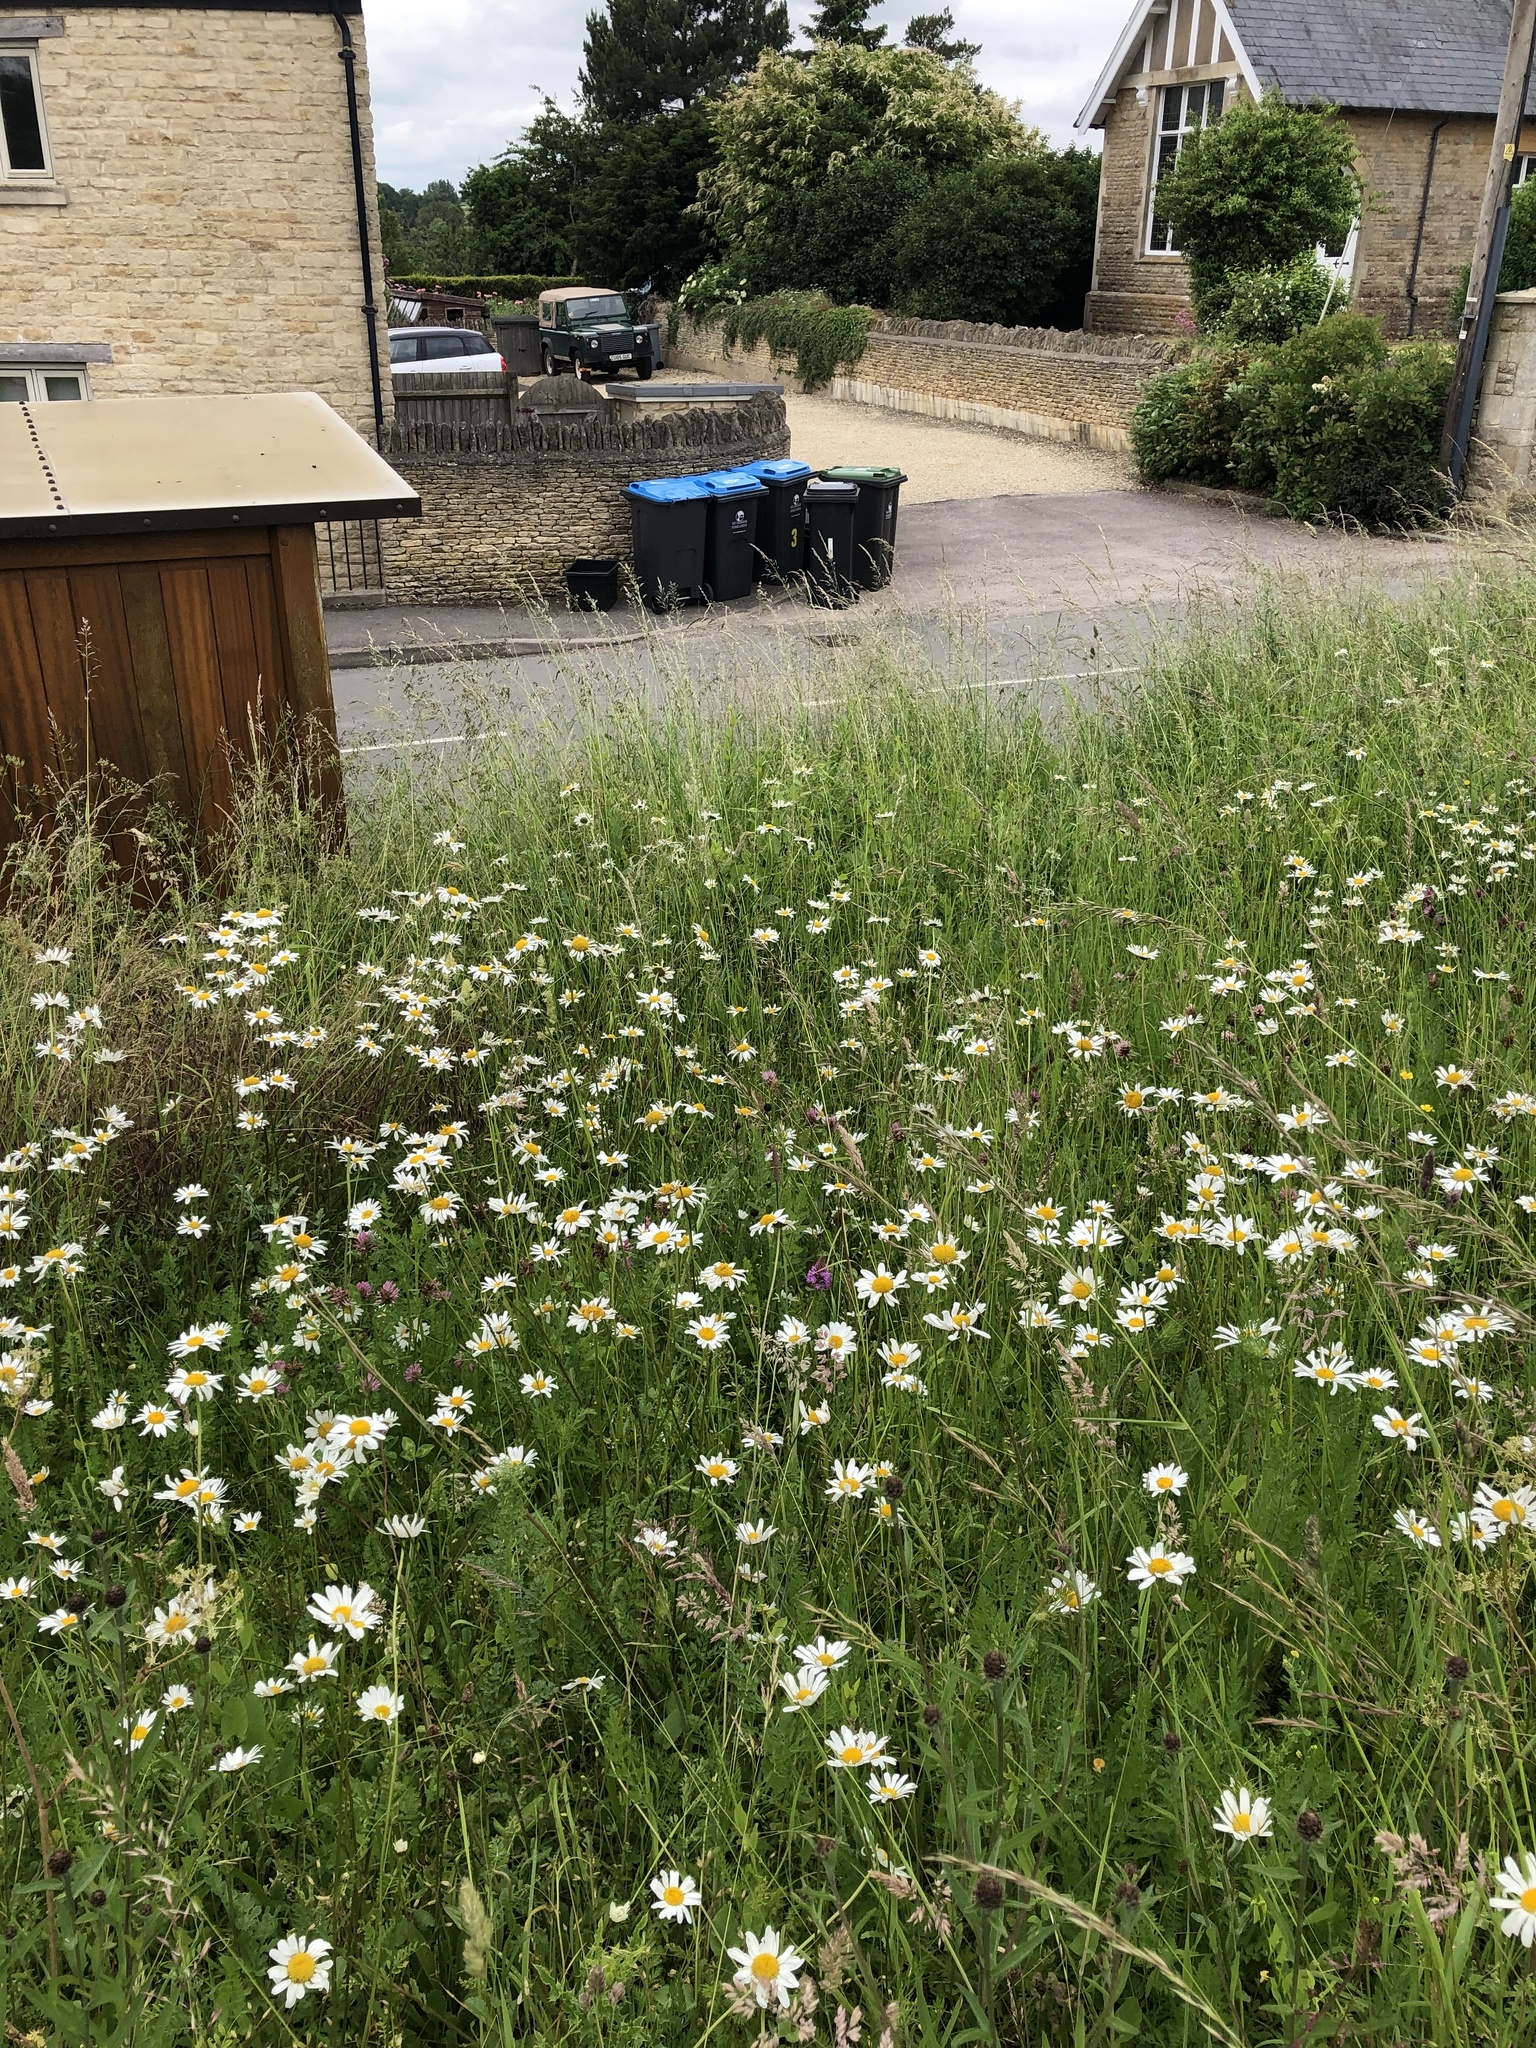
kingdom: Plantae
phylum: Tracheophyta
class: Liliopsida
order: Asparagales
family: Orchidaceae
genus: Anacamptis
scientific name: Anacamptis pyramidalis
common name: Pyramidal orchid
